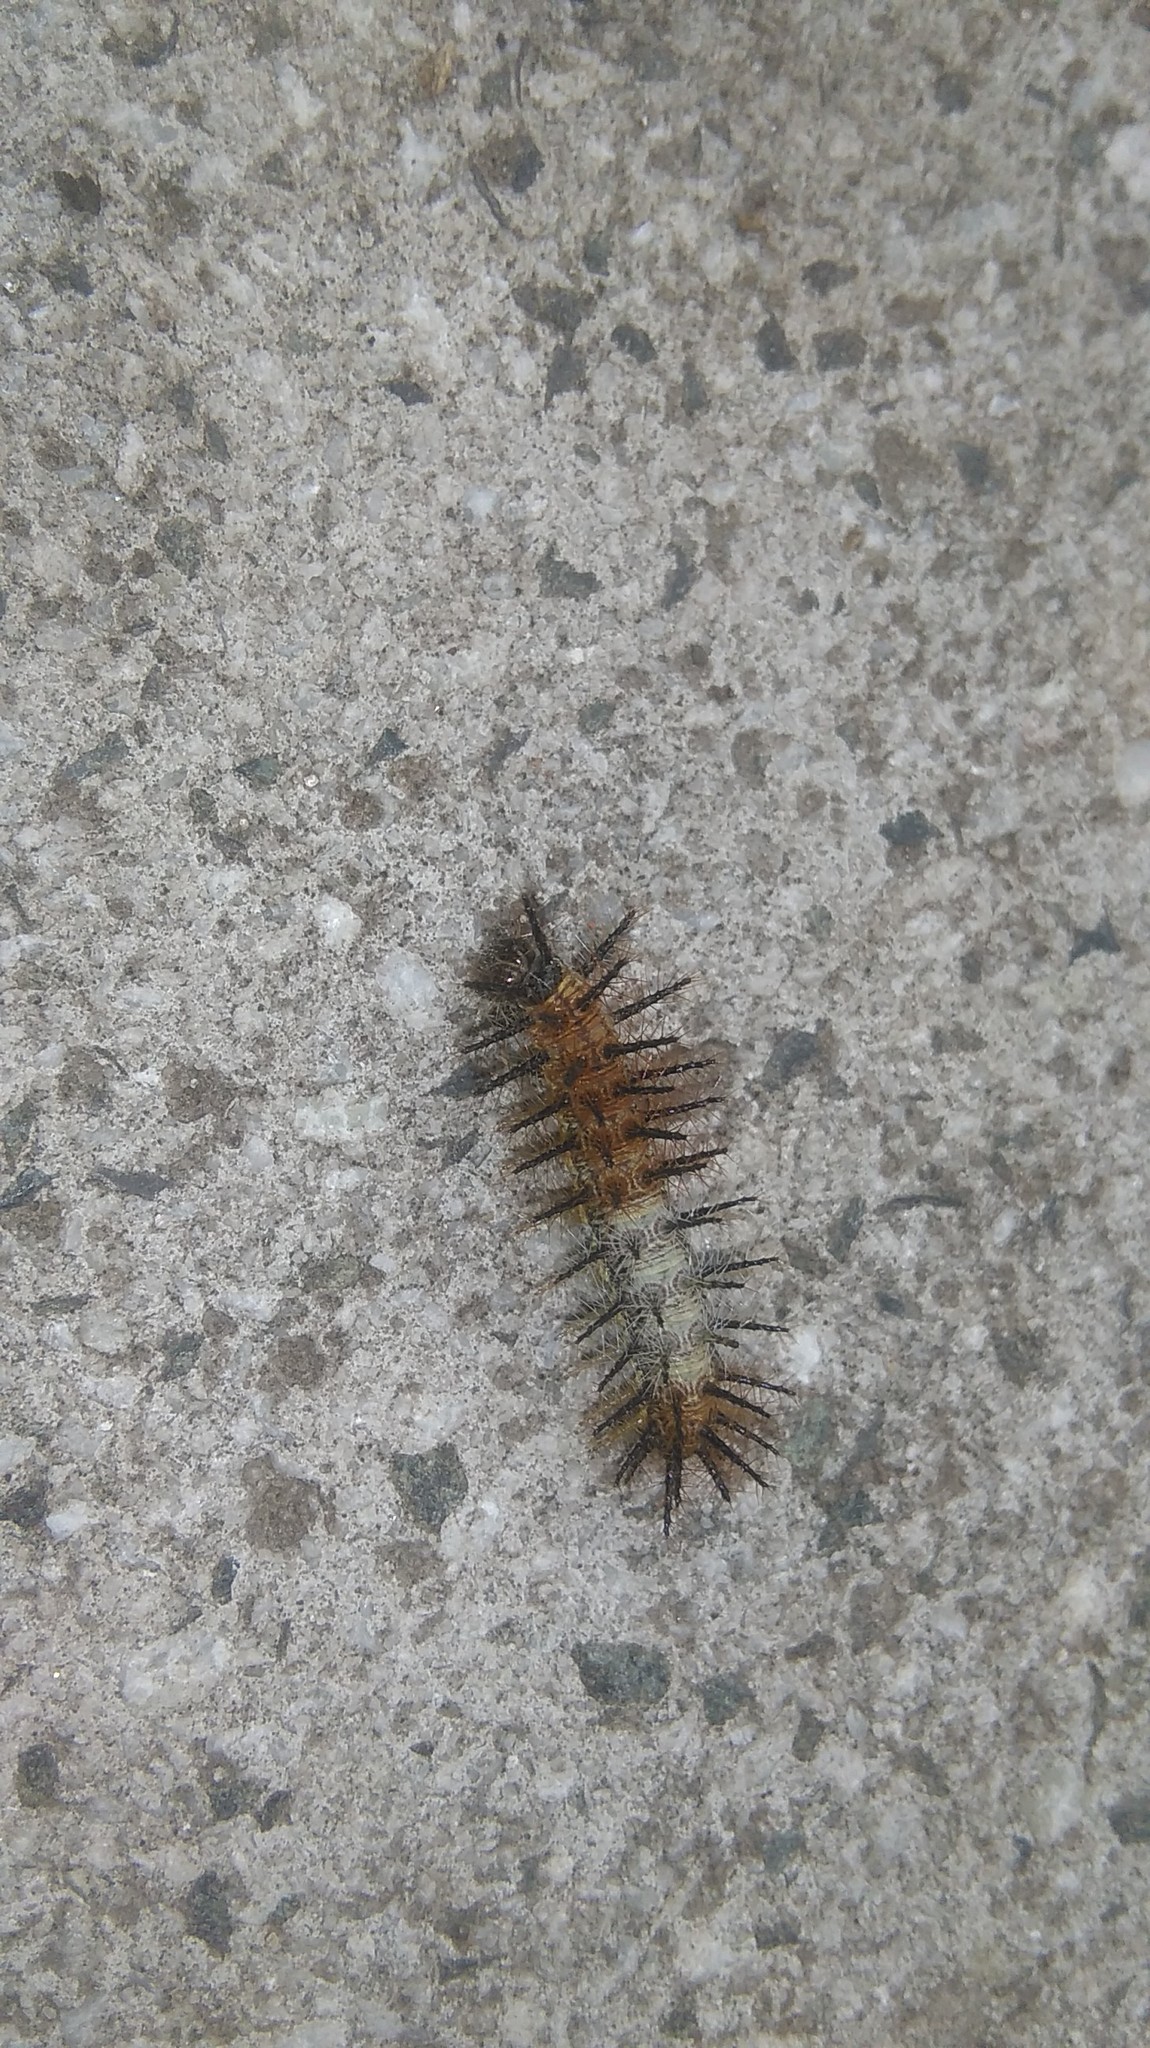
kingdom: Animalia
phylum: Arthropoda
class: Insecta
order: Lepidoptera
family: Nymphalidae
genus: Actinote
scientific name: Actinote pellenea
